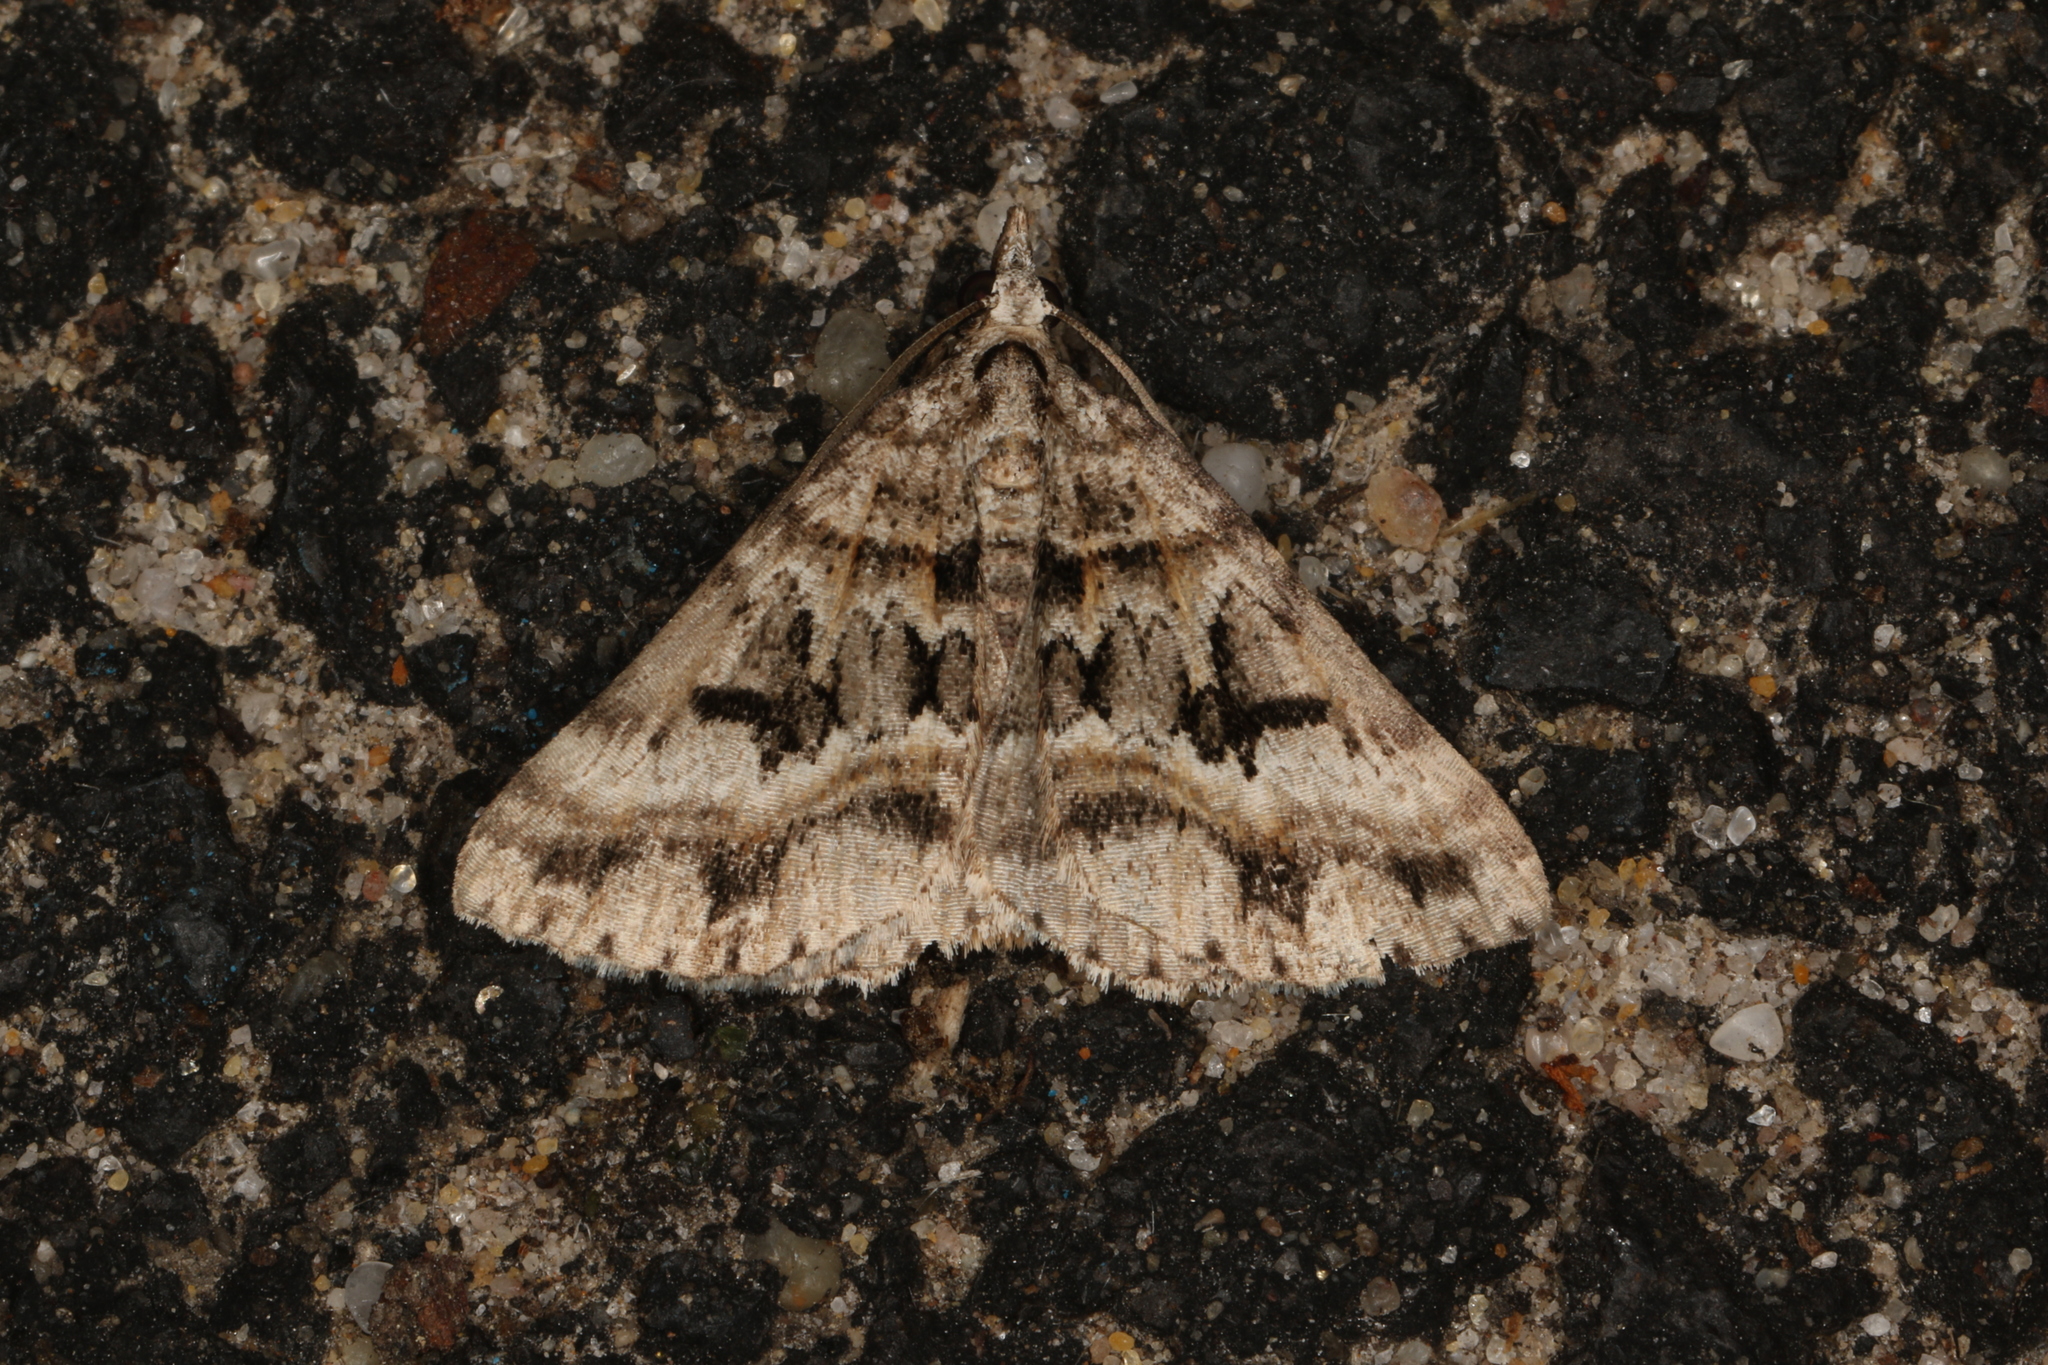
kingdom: Animalia
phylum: Arthropoda
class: Insecta
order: Lepidoptera
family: Geometridae
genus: Dichromodes
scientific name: Dichromodes longidens
